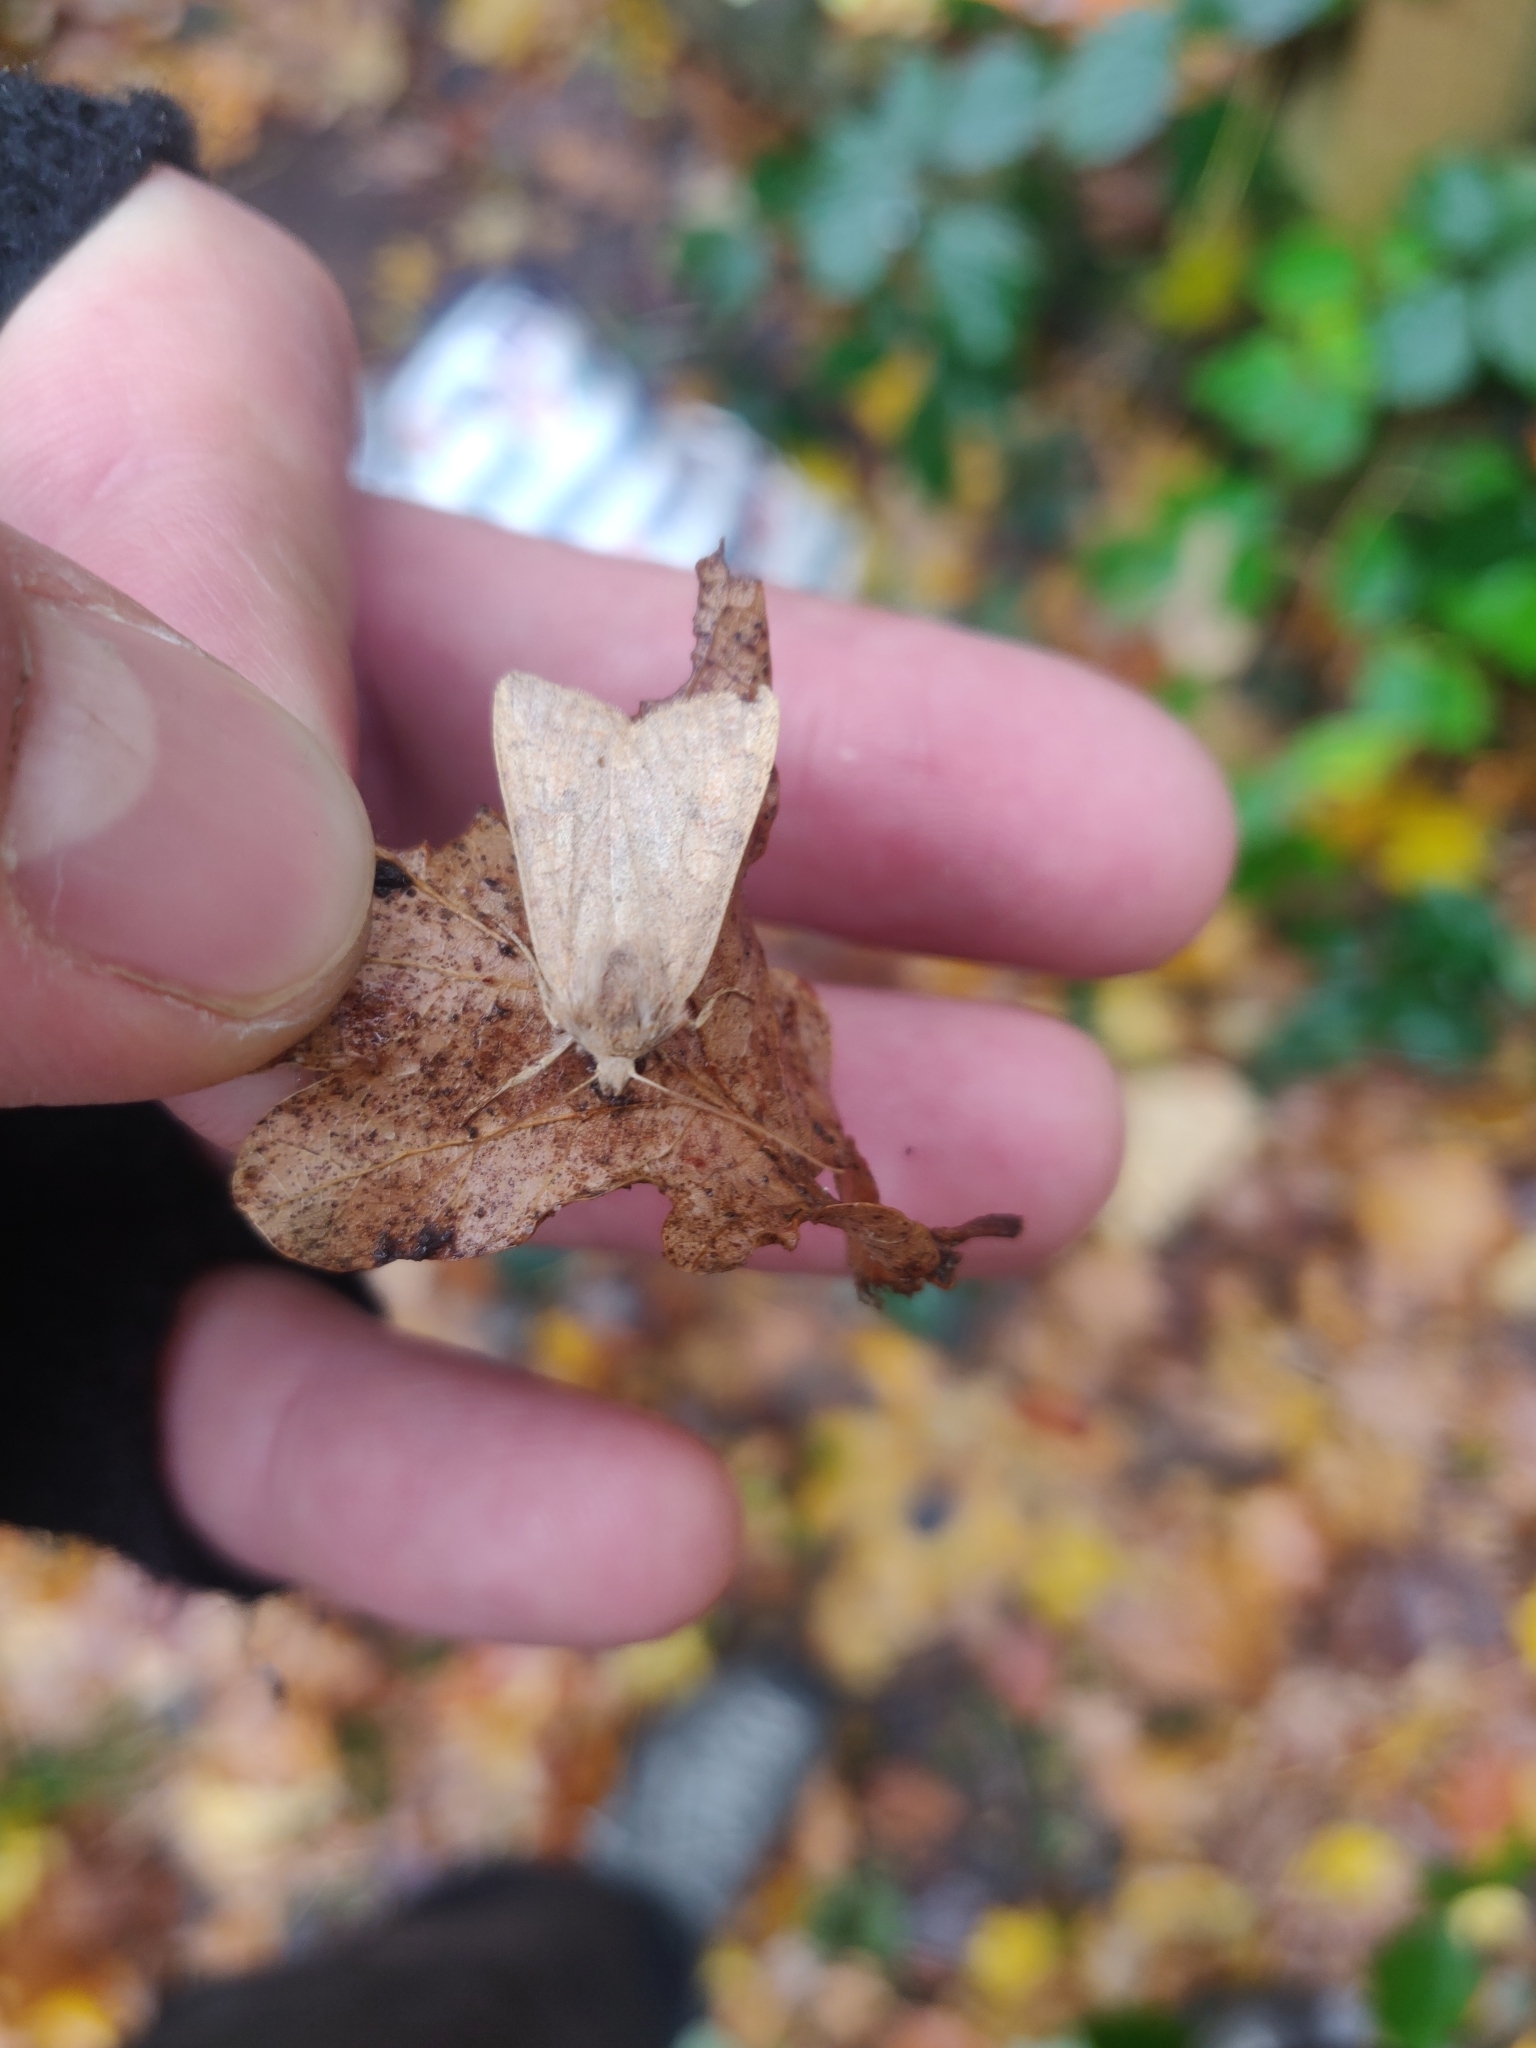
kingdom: Animalia
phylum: Arthropoda
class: Insecta
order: Lepidoptera
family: Noctuidae
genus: Sunira
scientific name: Sunira circellaris
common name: Brick
